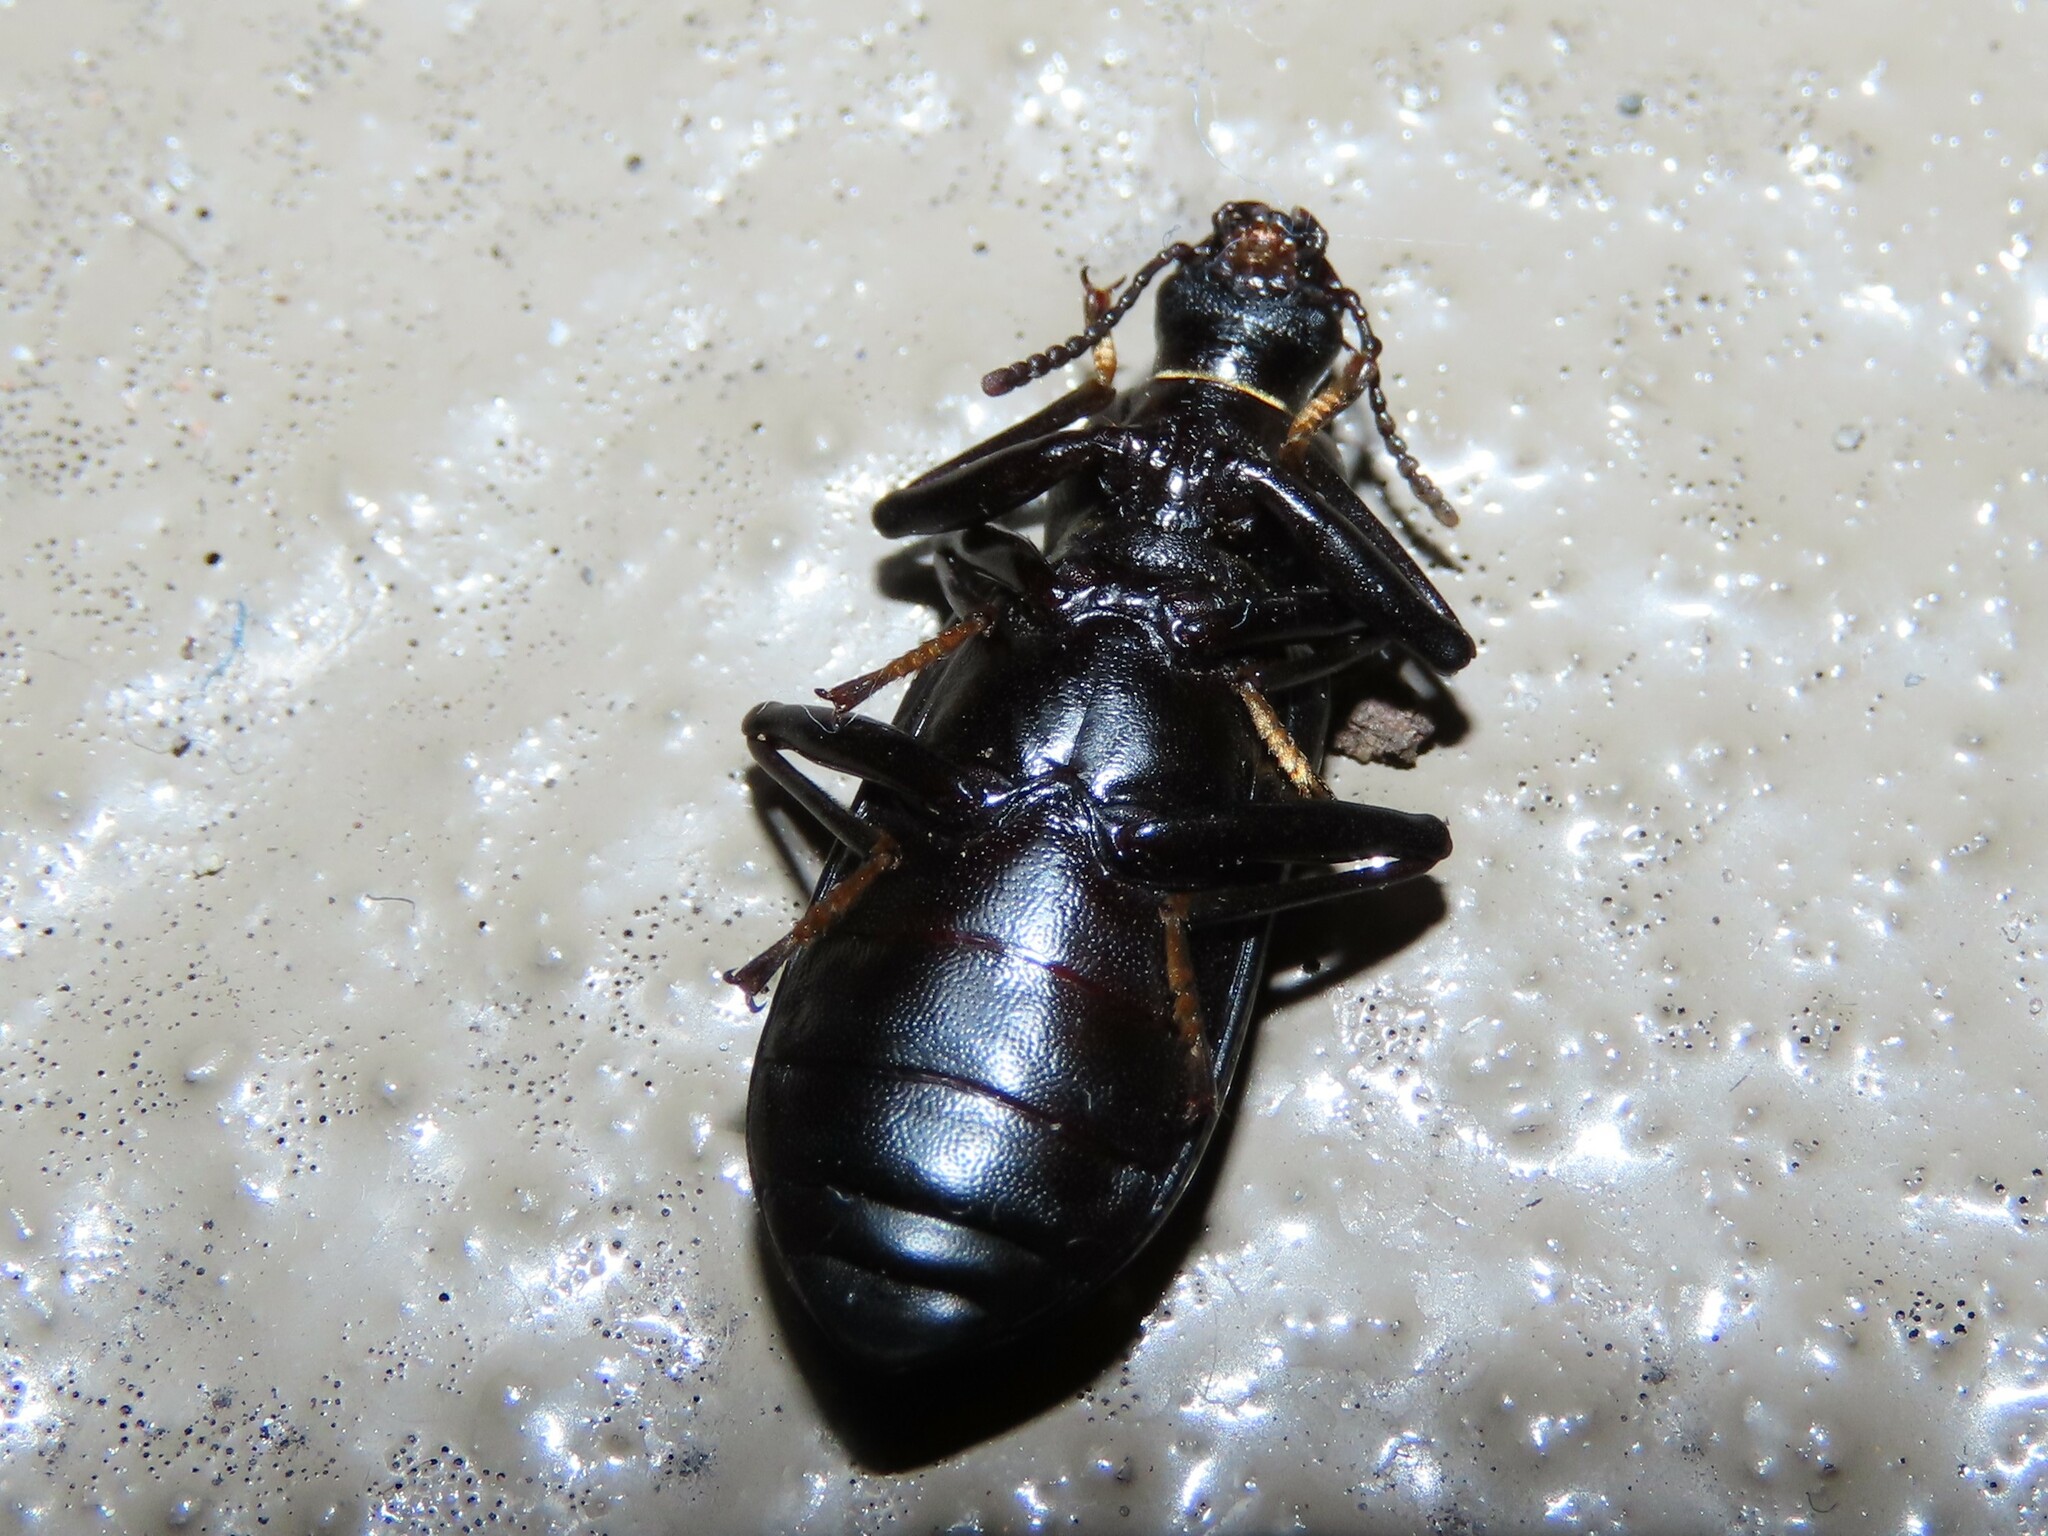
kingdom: Animalia
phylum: Arthropoda
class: Insecta
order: Coleoptera
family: Tenebrionidae
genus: Alobates
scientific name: Alobates barbatus
